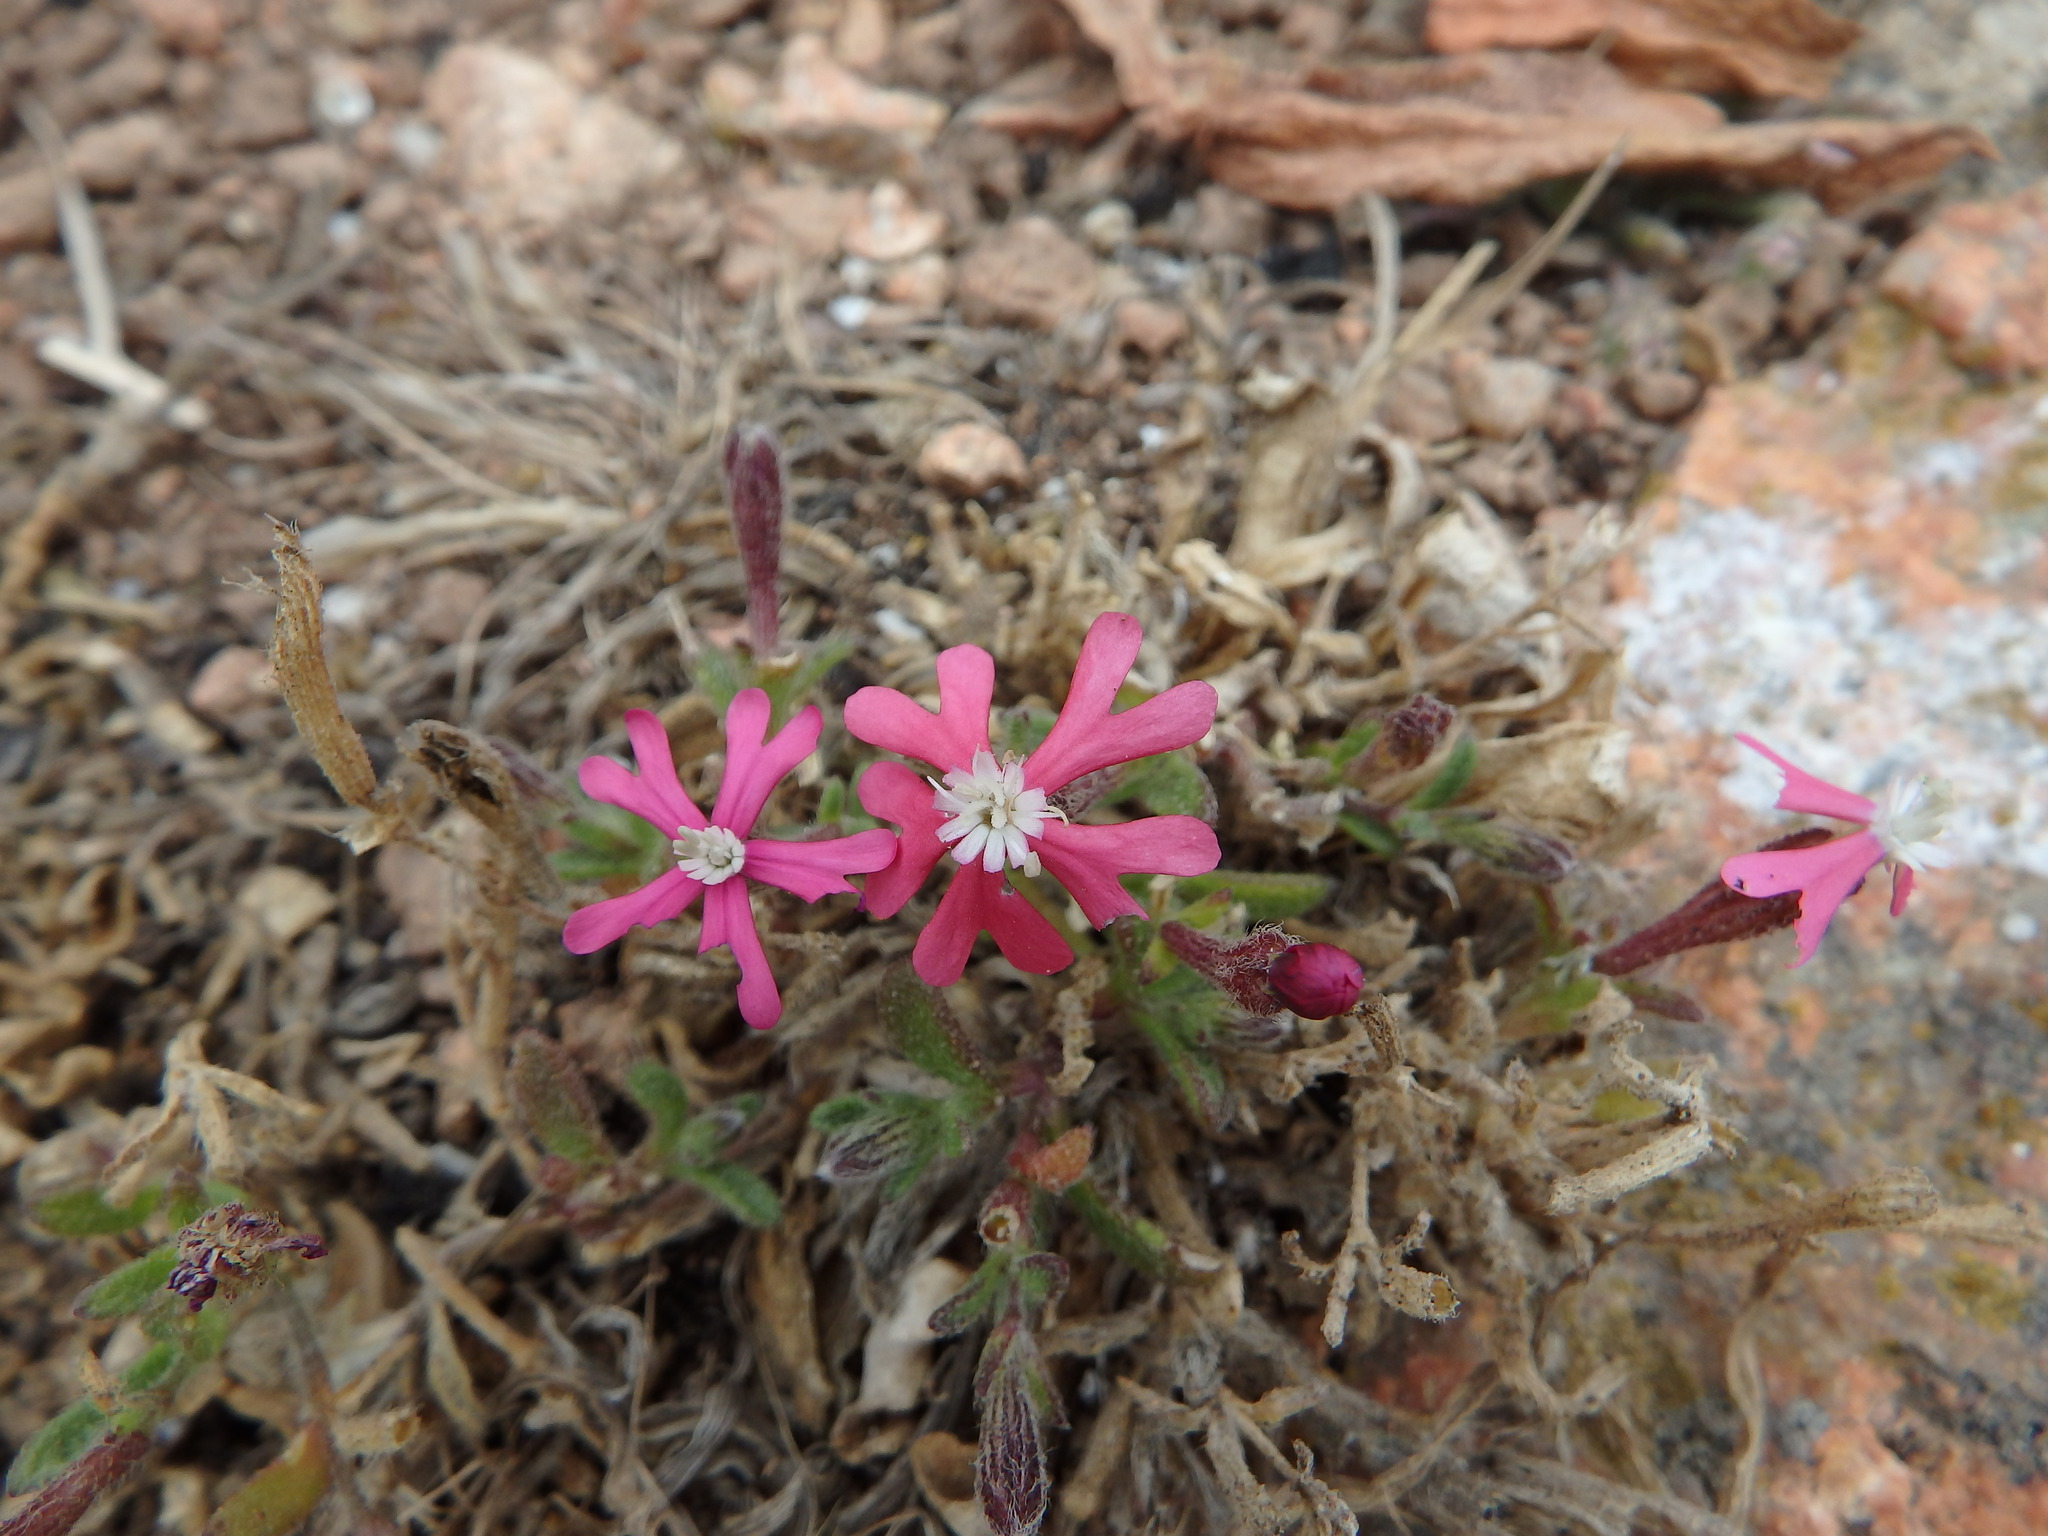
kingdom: Plantae
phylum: Tracheophyta
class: Magnoliopsida
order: Caryophyllales
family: Caryophyllaceae
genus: Silene
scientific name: Silene scabriflora
